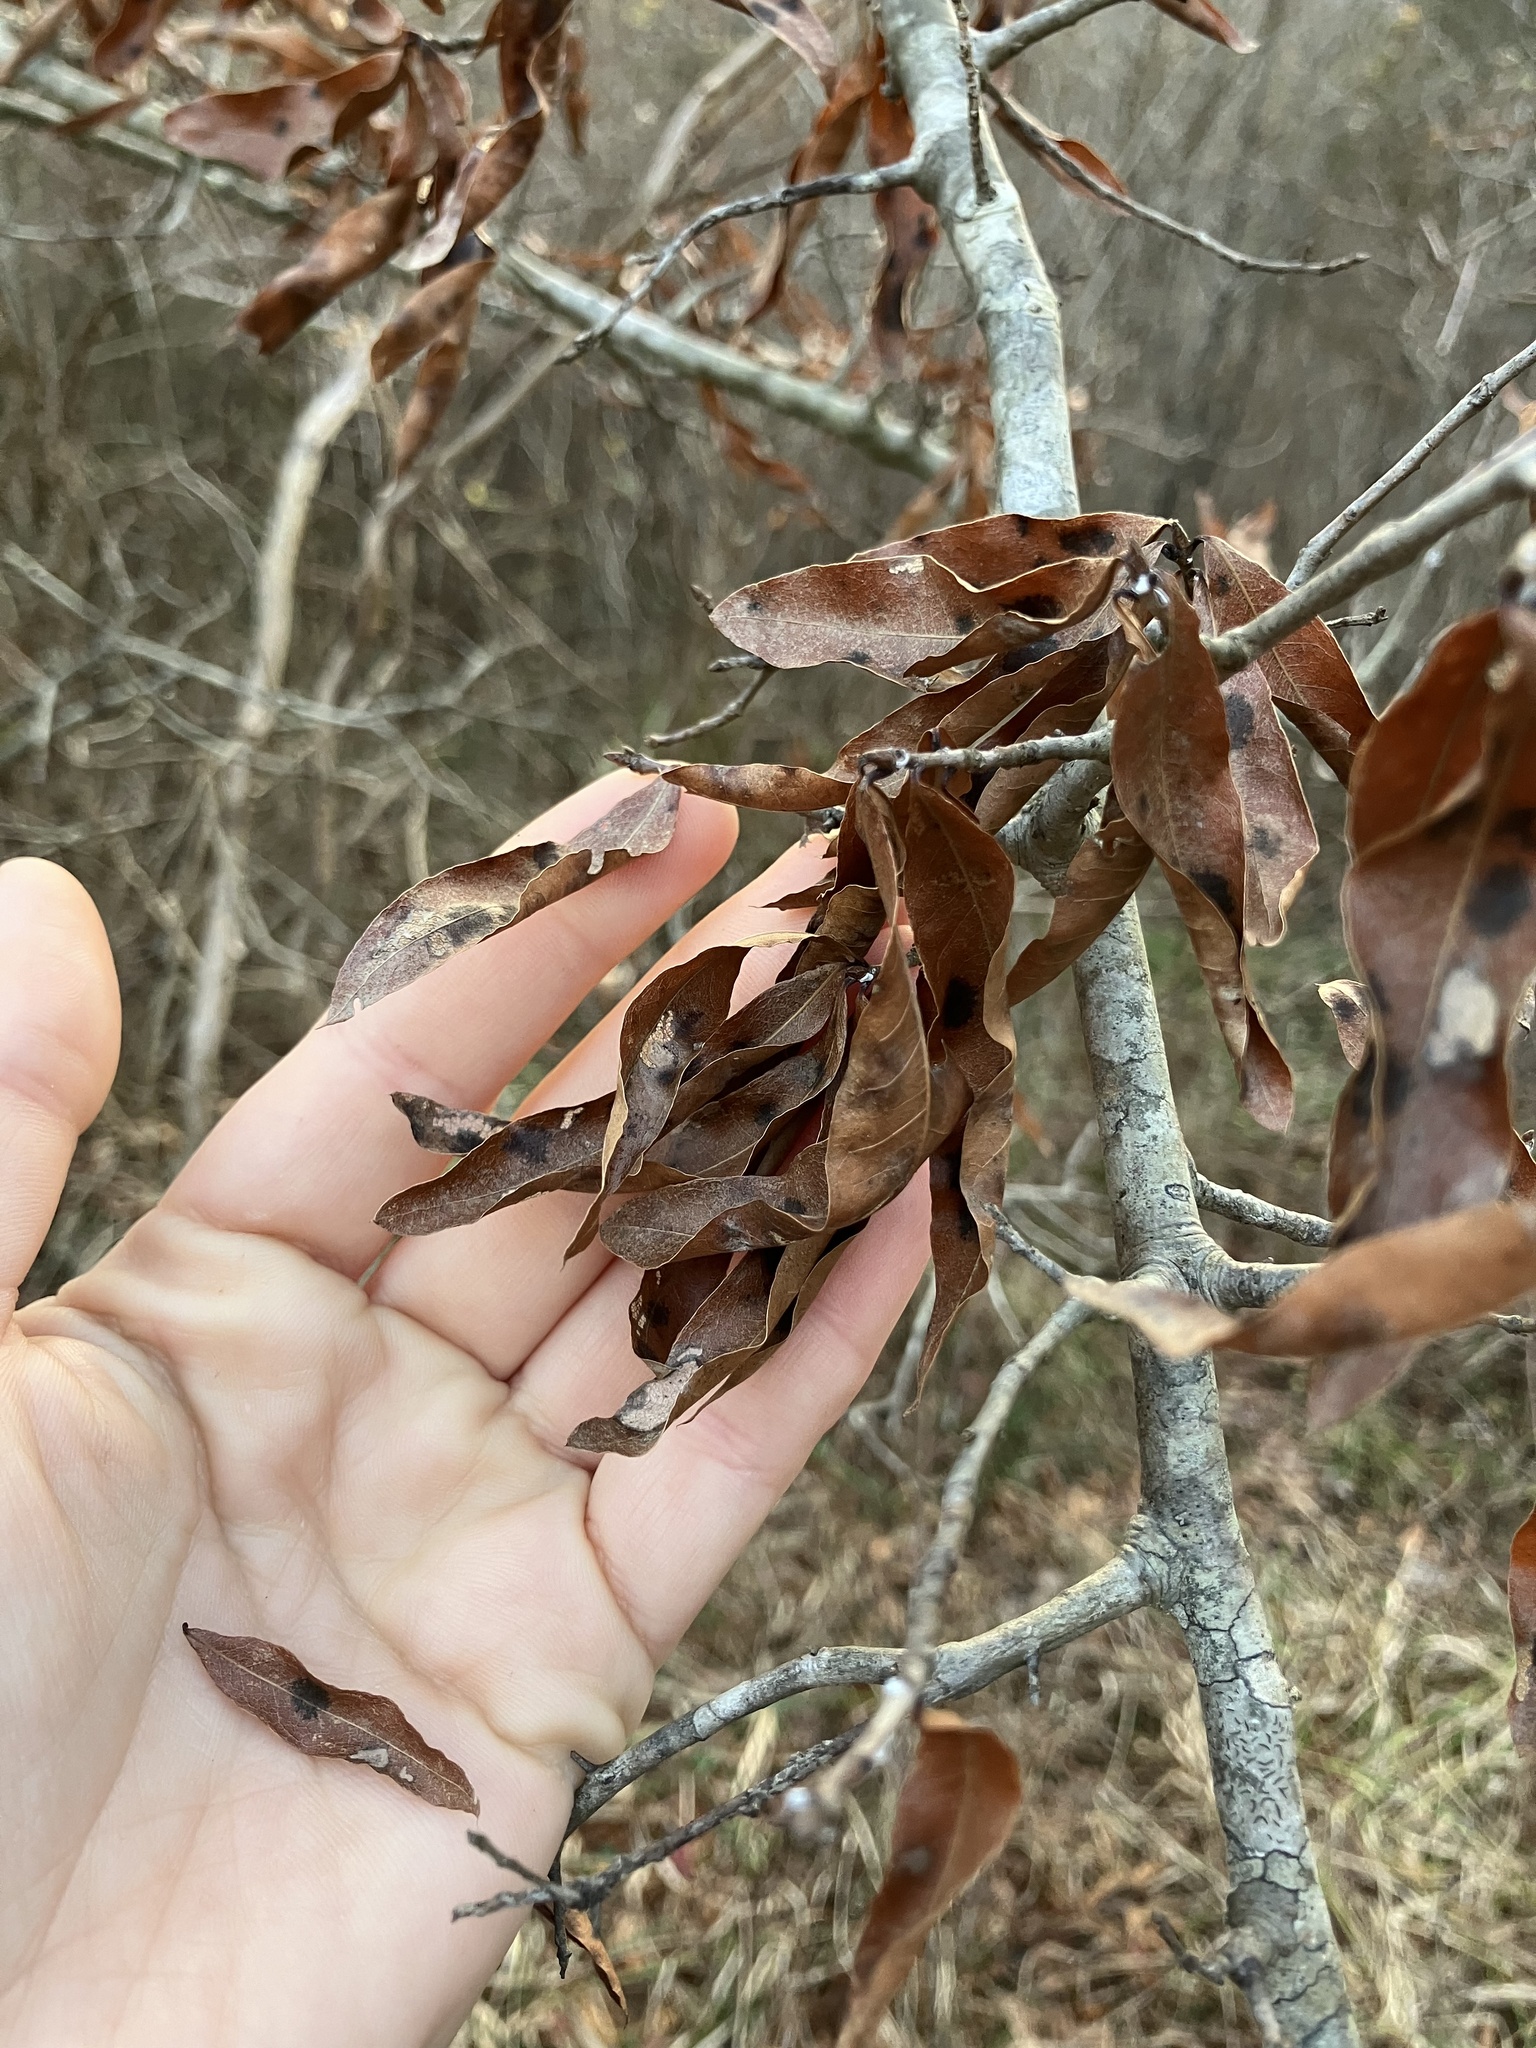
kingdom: Plantae
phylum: Tracheophyta
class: Magnoliopsida
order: Fagales
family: Fagaceae
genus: Quercus
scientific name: Quercus phellos
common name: Willow oak
